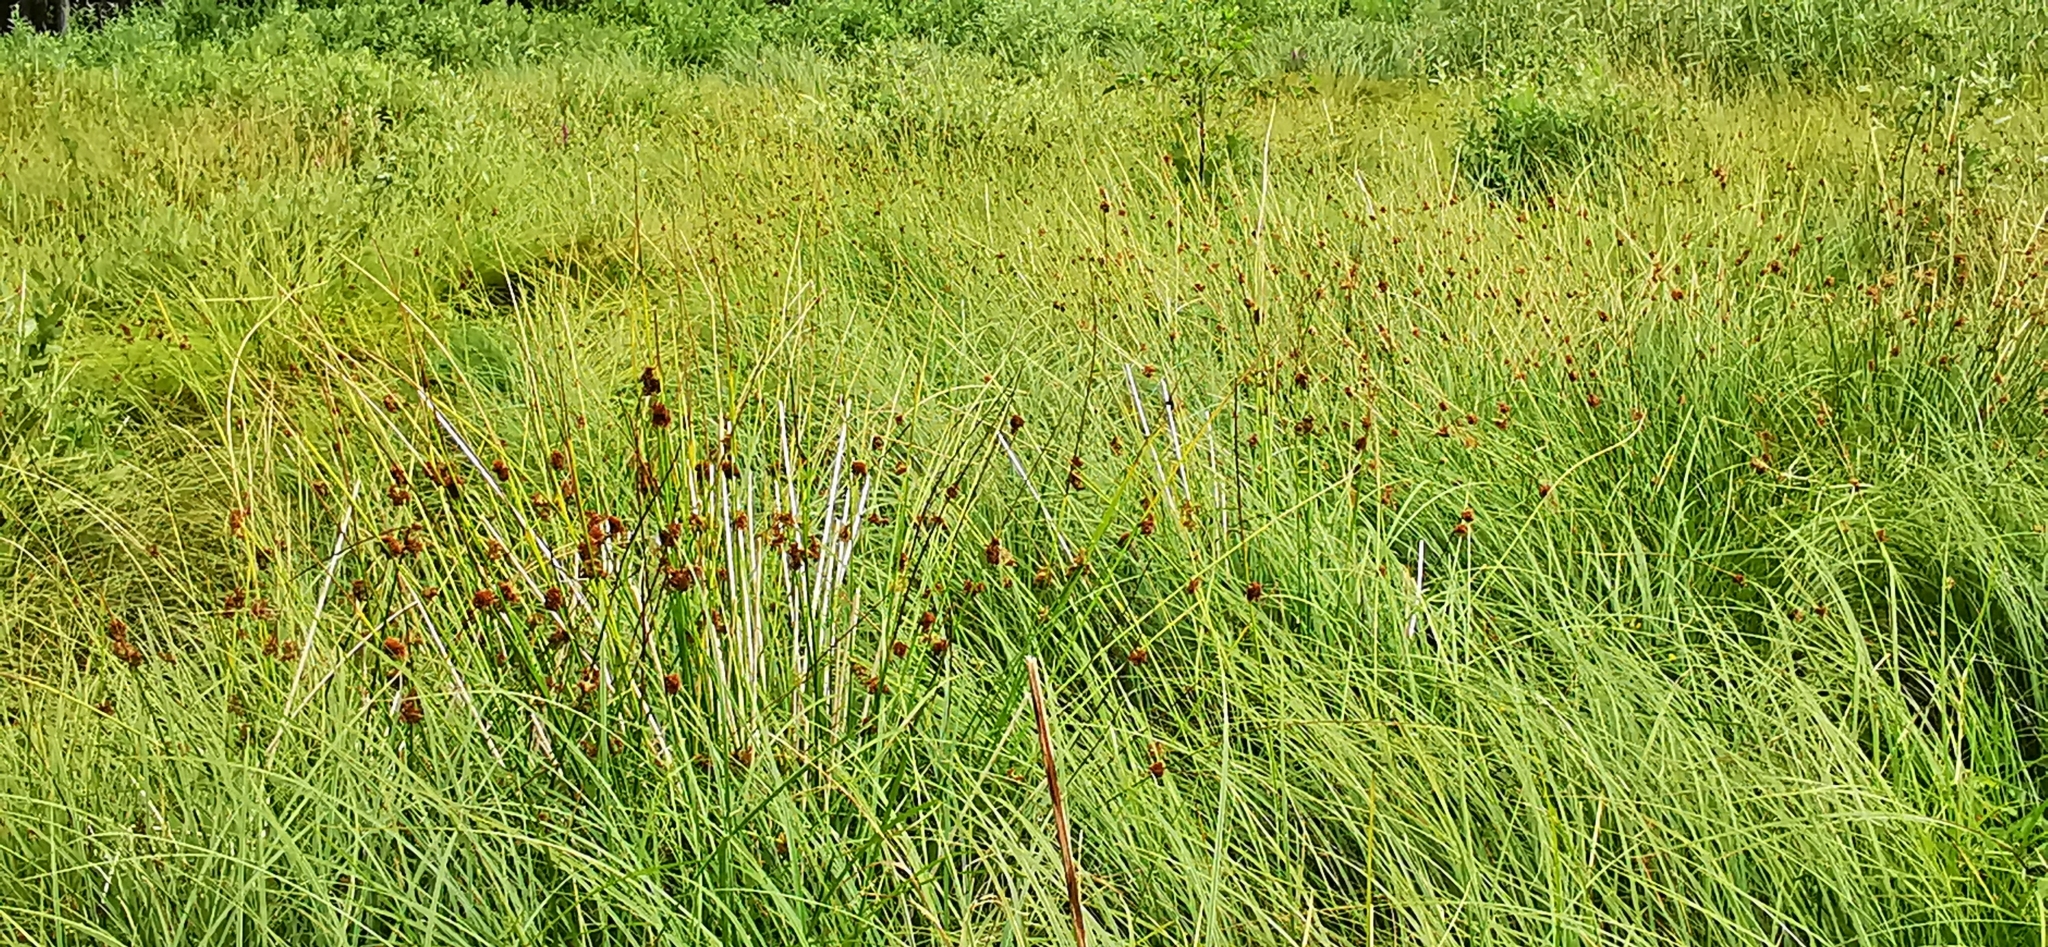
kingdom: Plantae
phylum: Tracheophyta
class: Liliopsida
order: Poales
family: Juncaceae
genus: Juncus
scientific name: Juncus conglomeratus
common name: Compact rush
